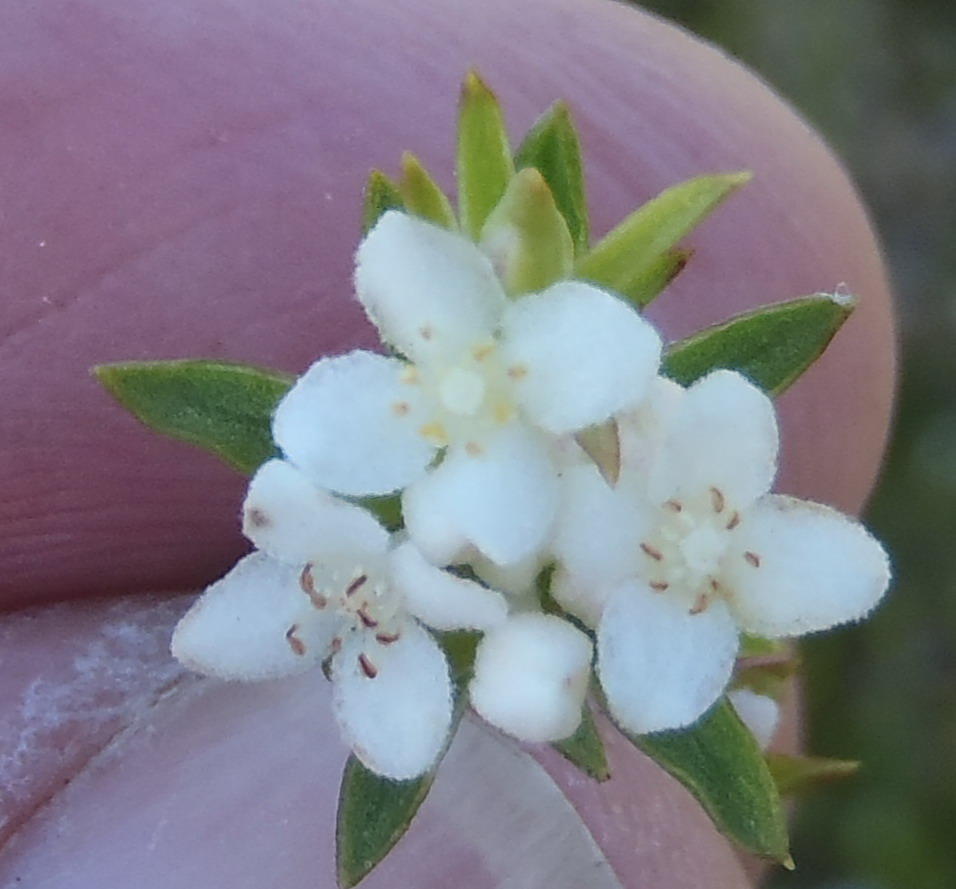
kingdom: Plantae
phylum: Tracheophyta
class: Magnoliopsida
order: Malvales
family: Thymelaeaceae
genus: Lachnaea
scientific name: Lachnaea diosmoides
